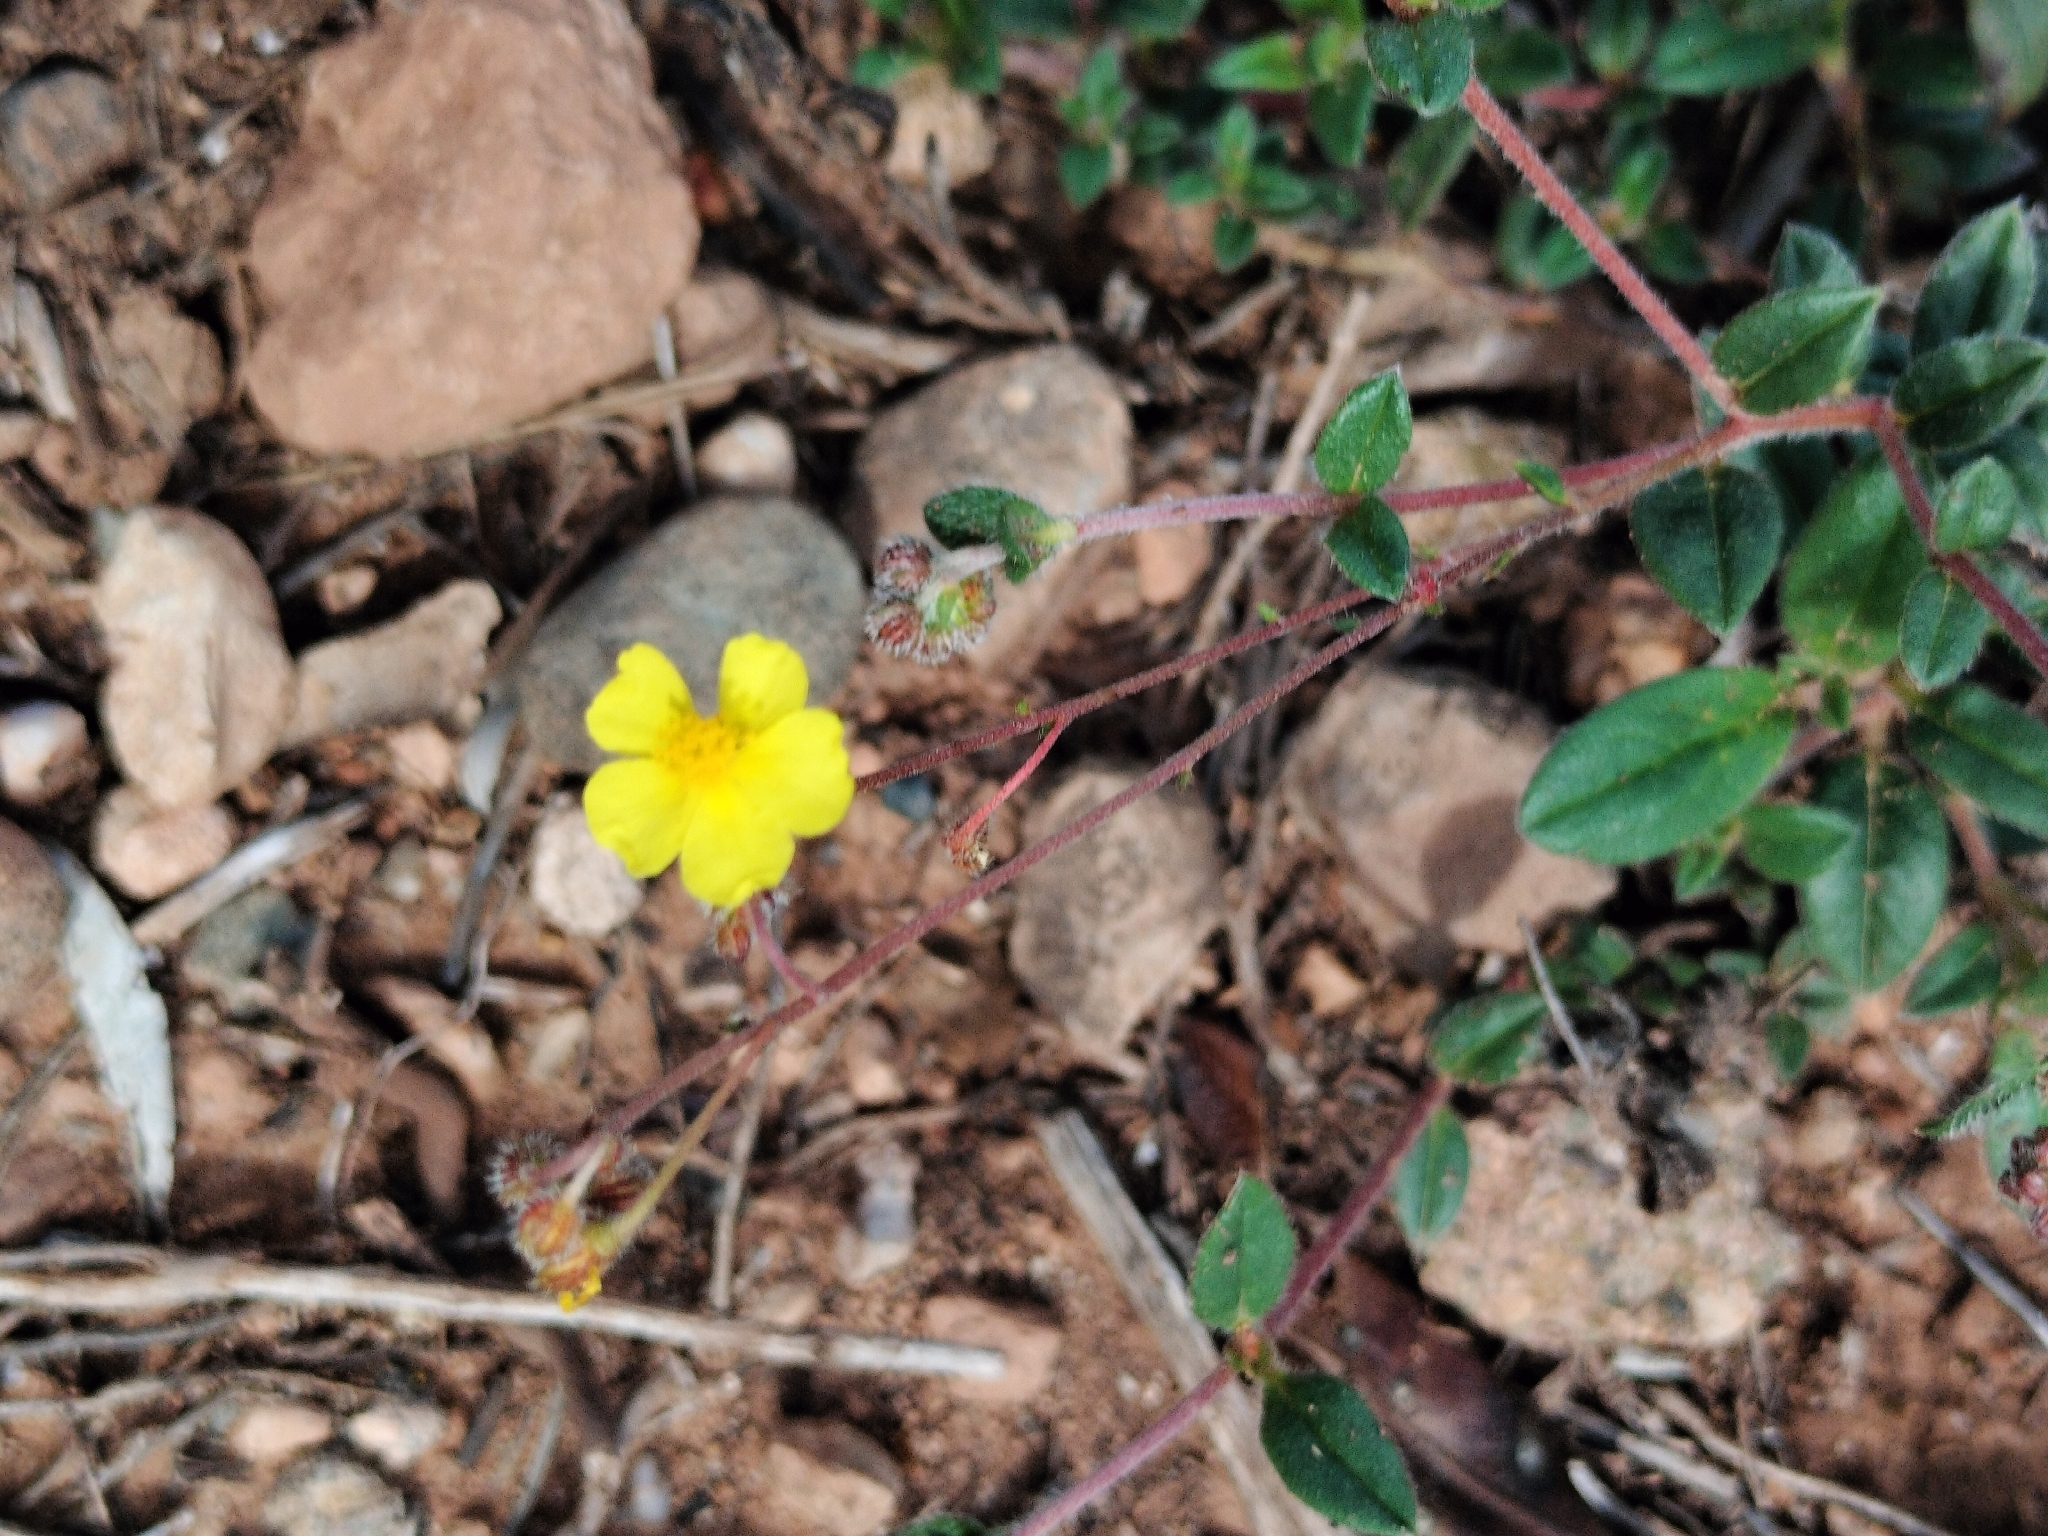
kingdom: Plantae
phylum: Tracheophyta
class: Magnoliopsida
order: Malvales
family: Cistaceae
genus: Helianthemum
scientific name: Helianthemum marifolium
